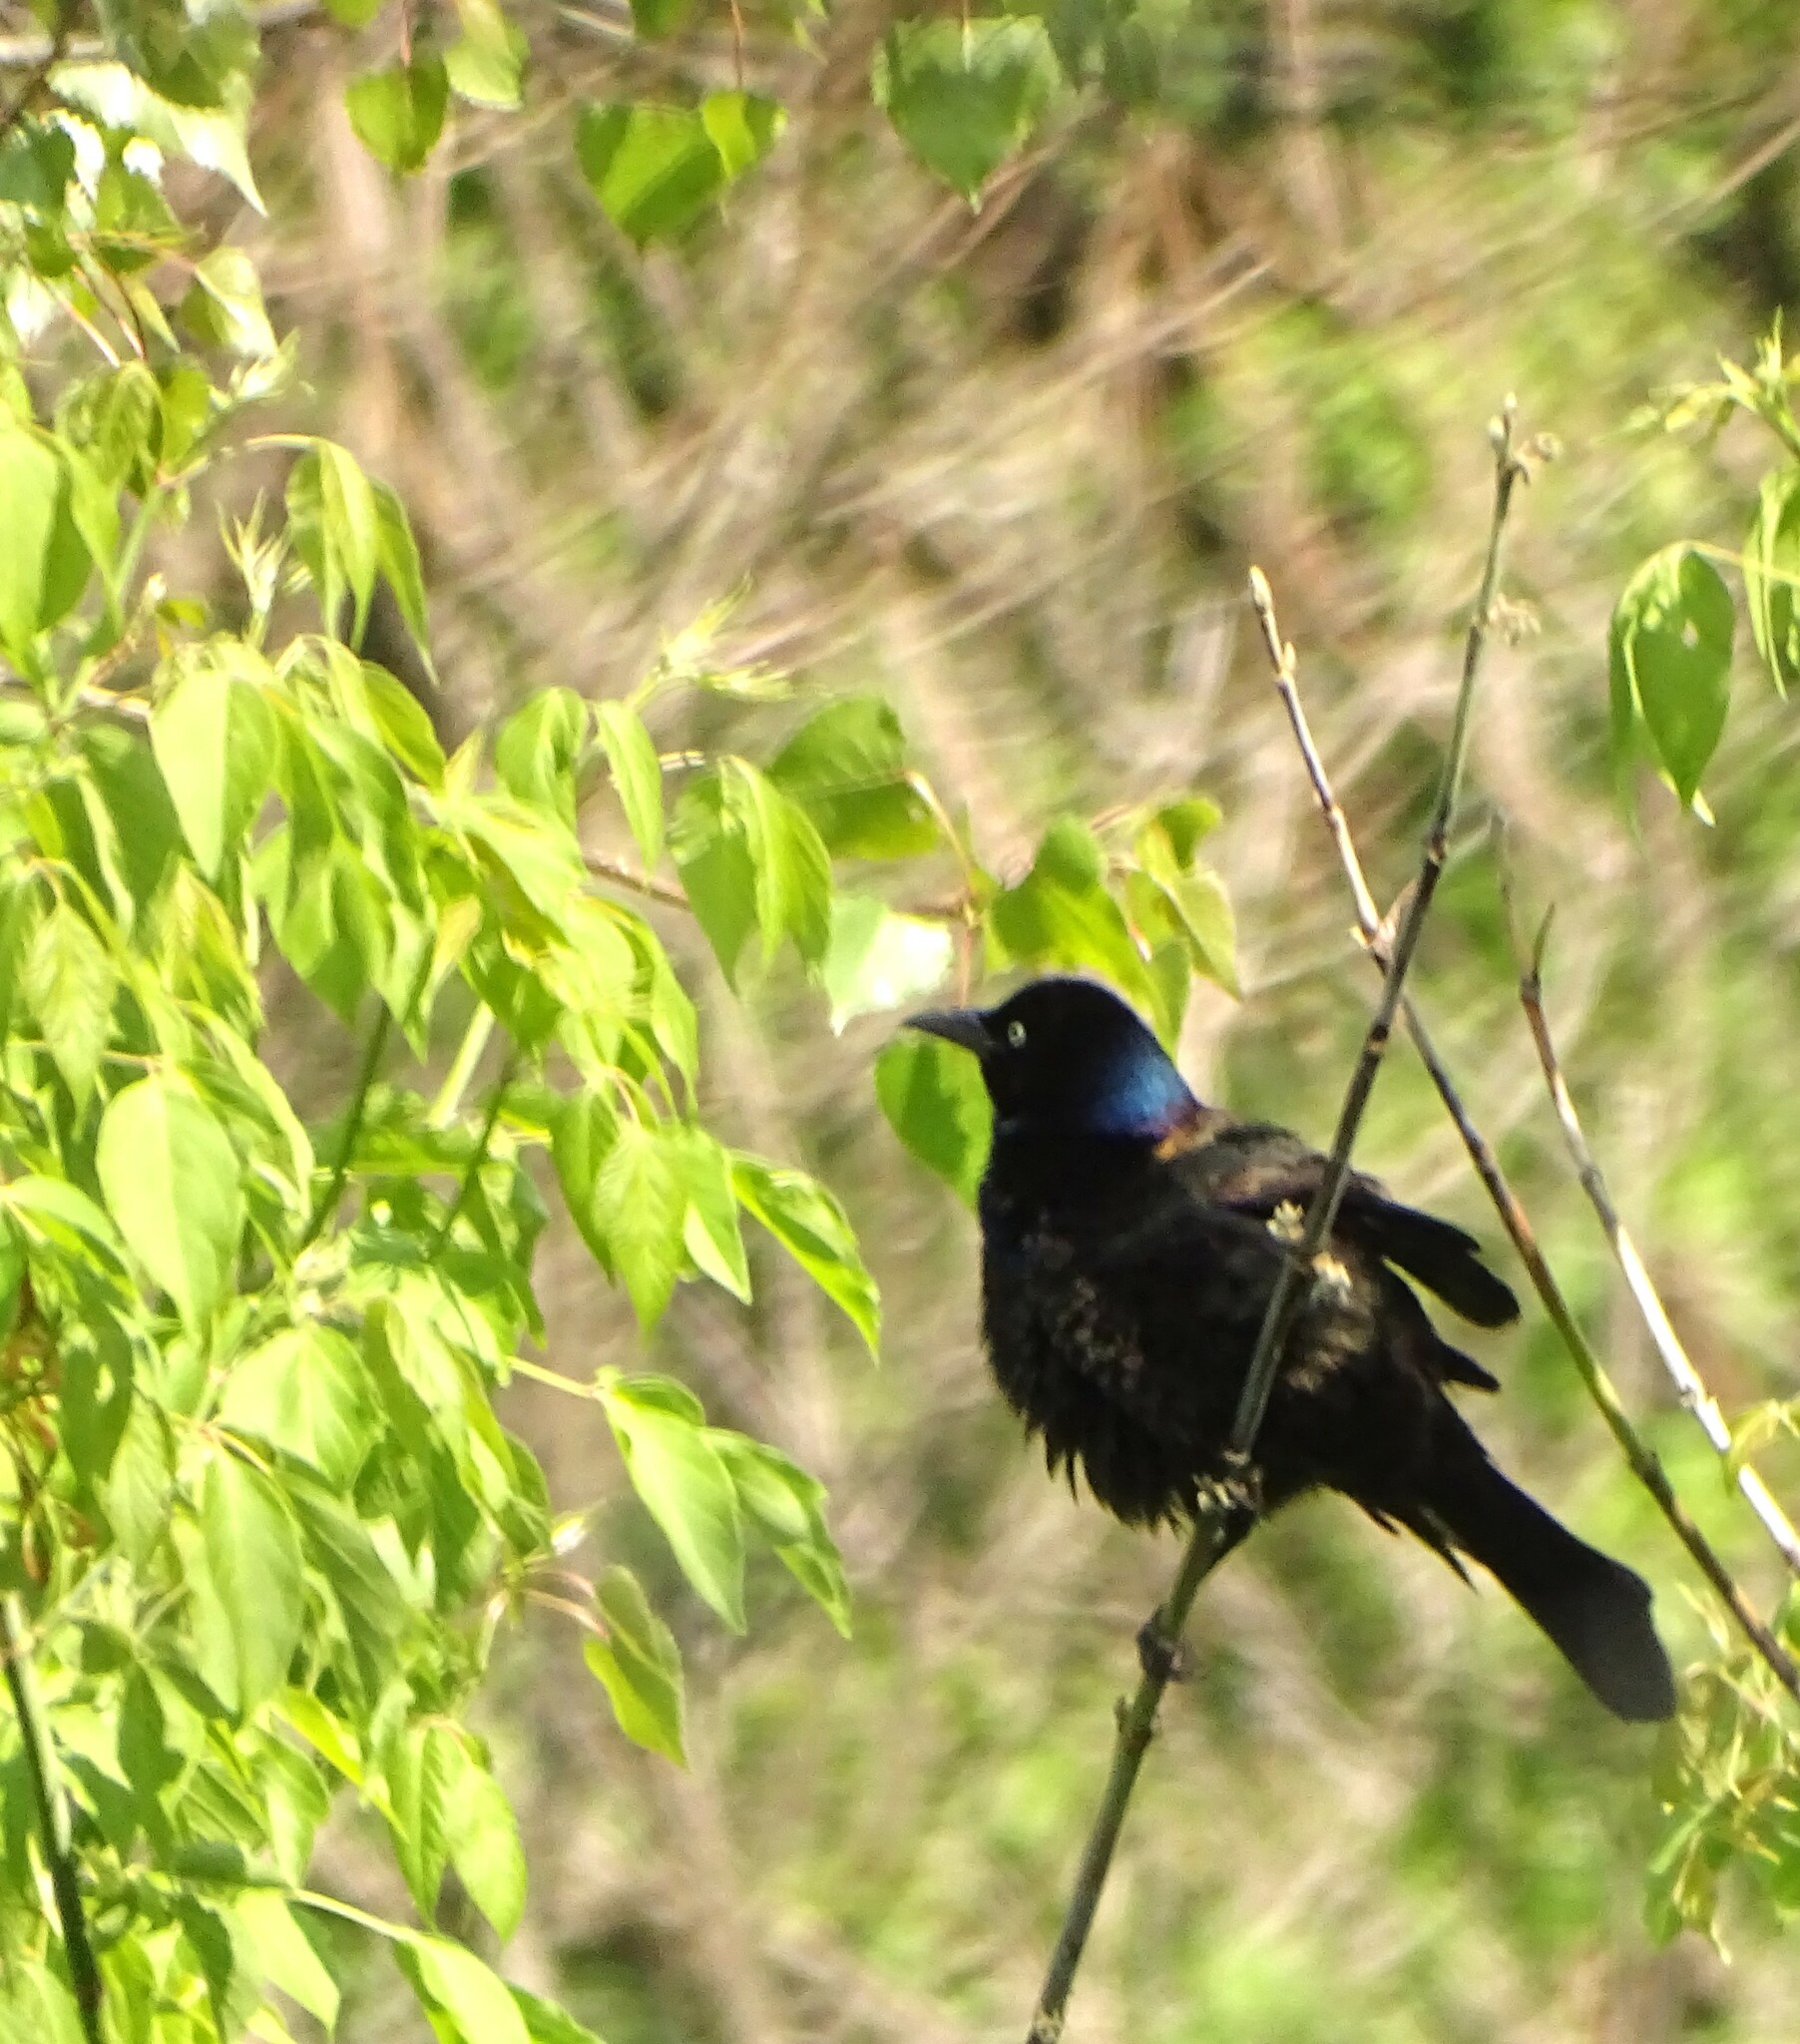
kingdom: Animalia
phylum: Chordata
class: Aves
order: Passeriformes
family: Icteridae
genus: Quiscalus
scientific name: Quiscalus quiscula
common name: Common grackle
